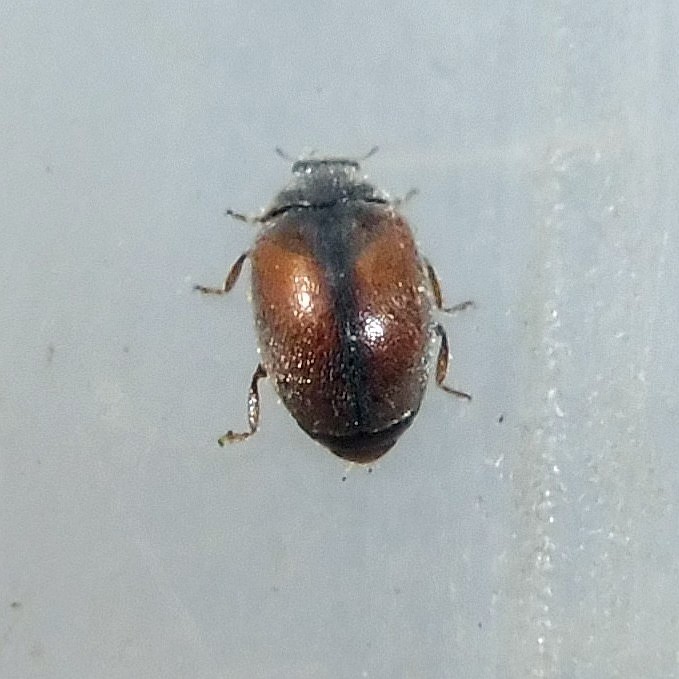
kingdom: Animalia
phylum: Arthropoda
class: Insecta
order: Coleoptera
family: Coccinellidae
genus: Scymnus
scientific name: Scymnus suturalis
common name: Ladybird beetle
